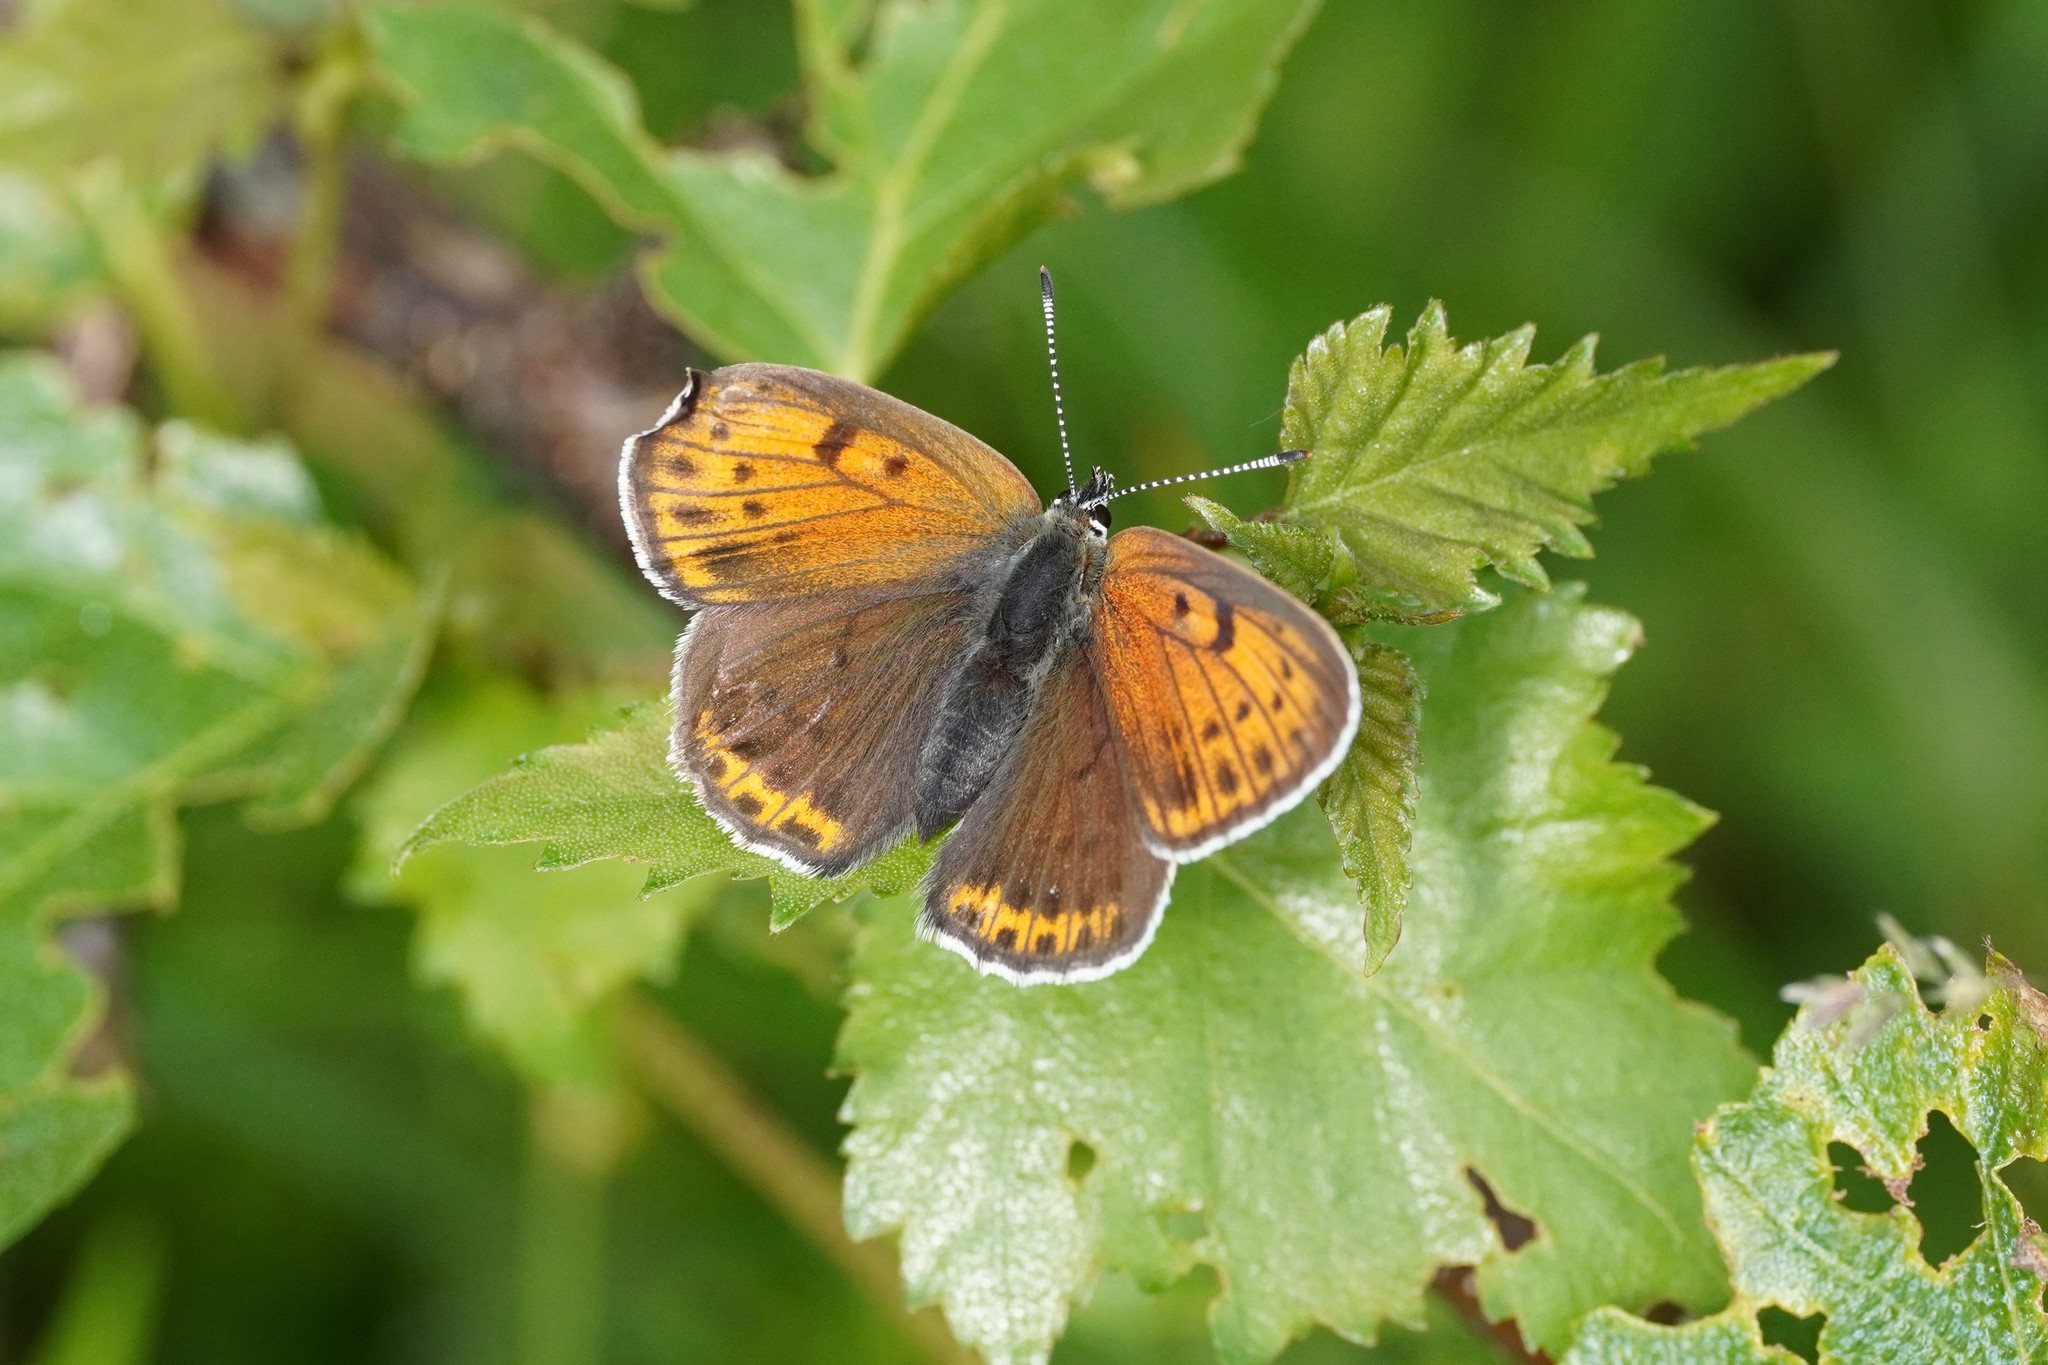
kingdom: Animalia
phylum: Arthropoda
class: Insecta
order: Lepidoptera
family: Lycaenidae
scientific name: Lycaenidae
